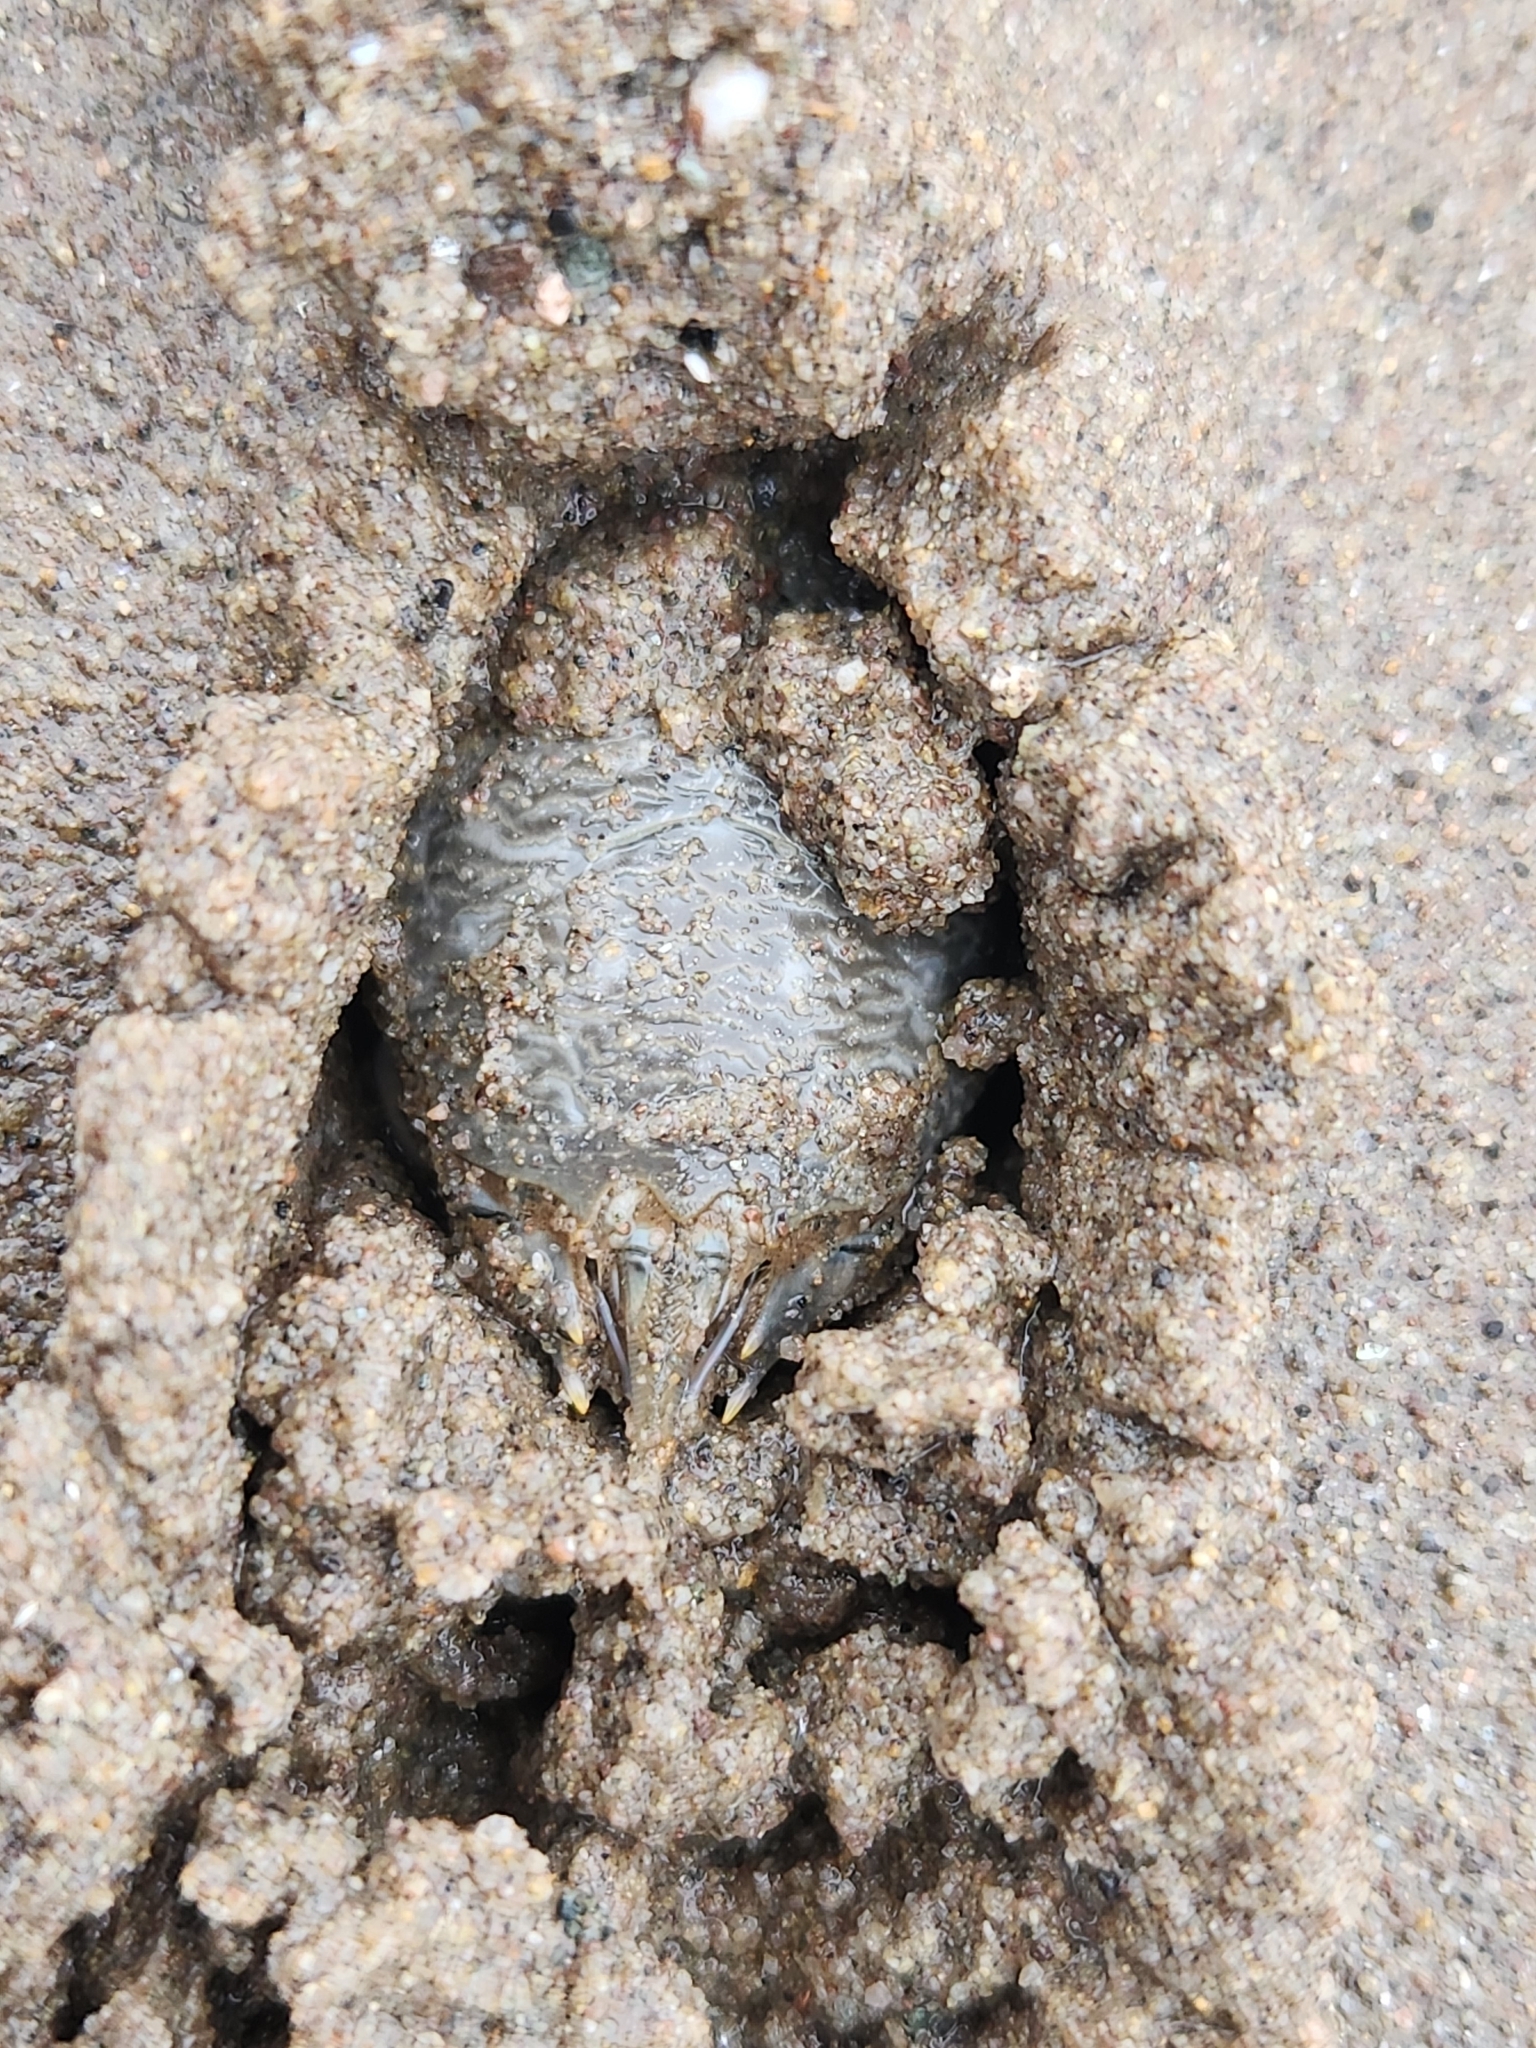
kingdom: Animalia
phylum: Arthropoda
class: Malacostraca
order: Decapoda
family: Hippidae
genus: Emerita
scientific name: Emerita analoga
